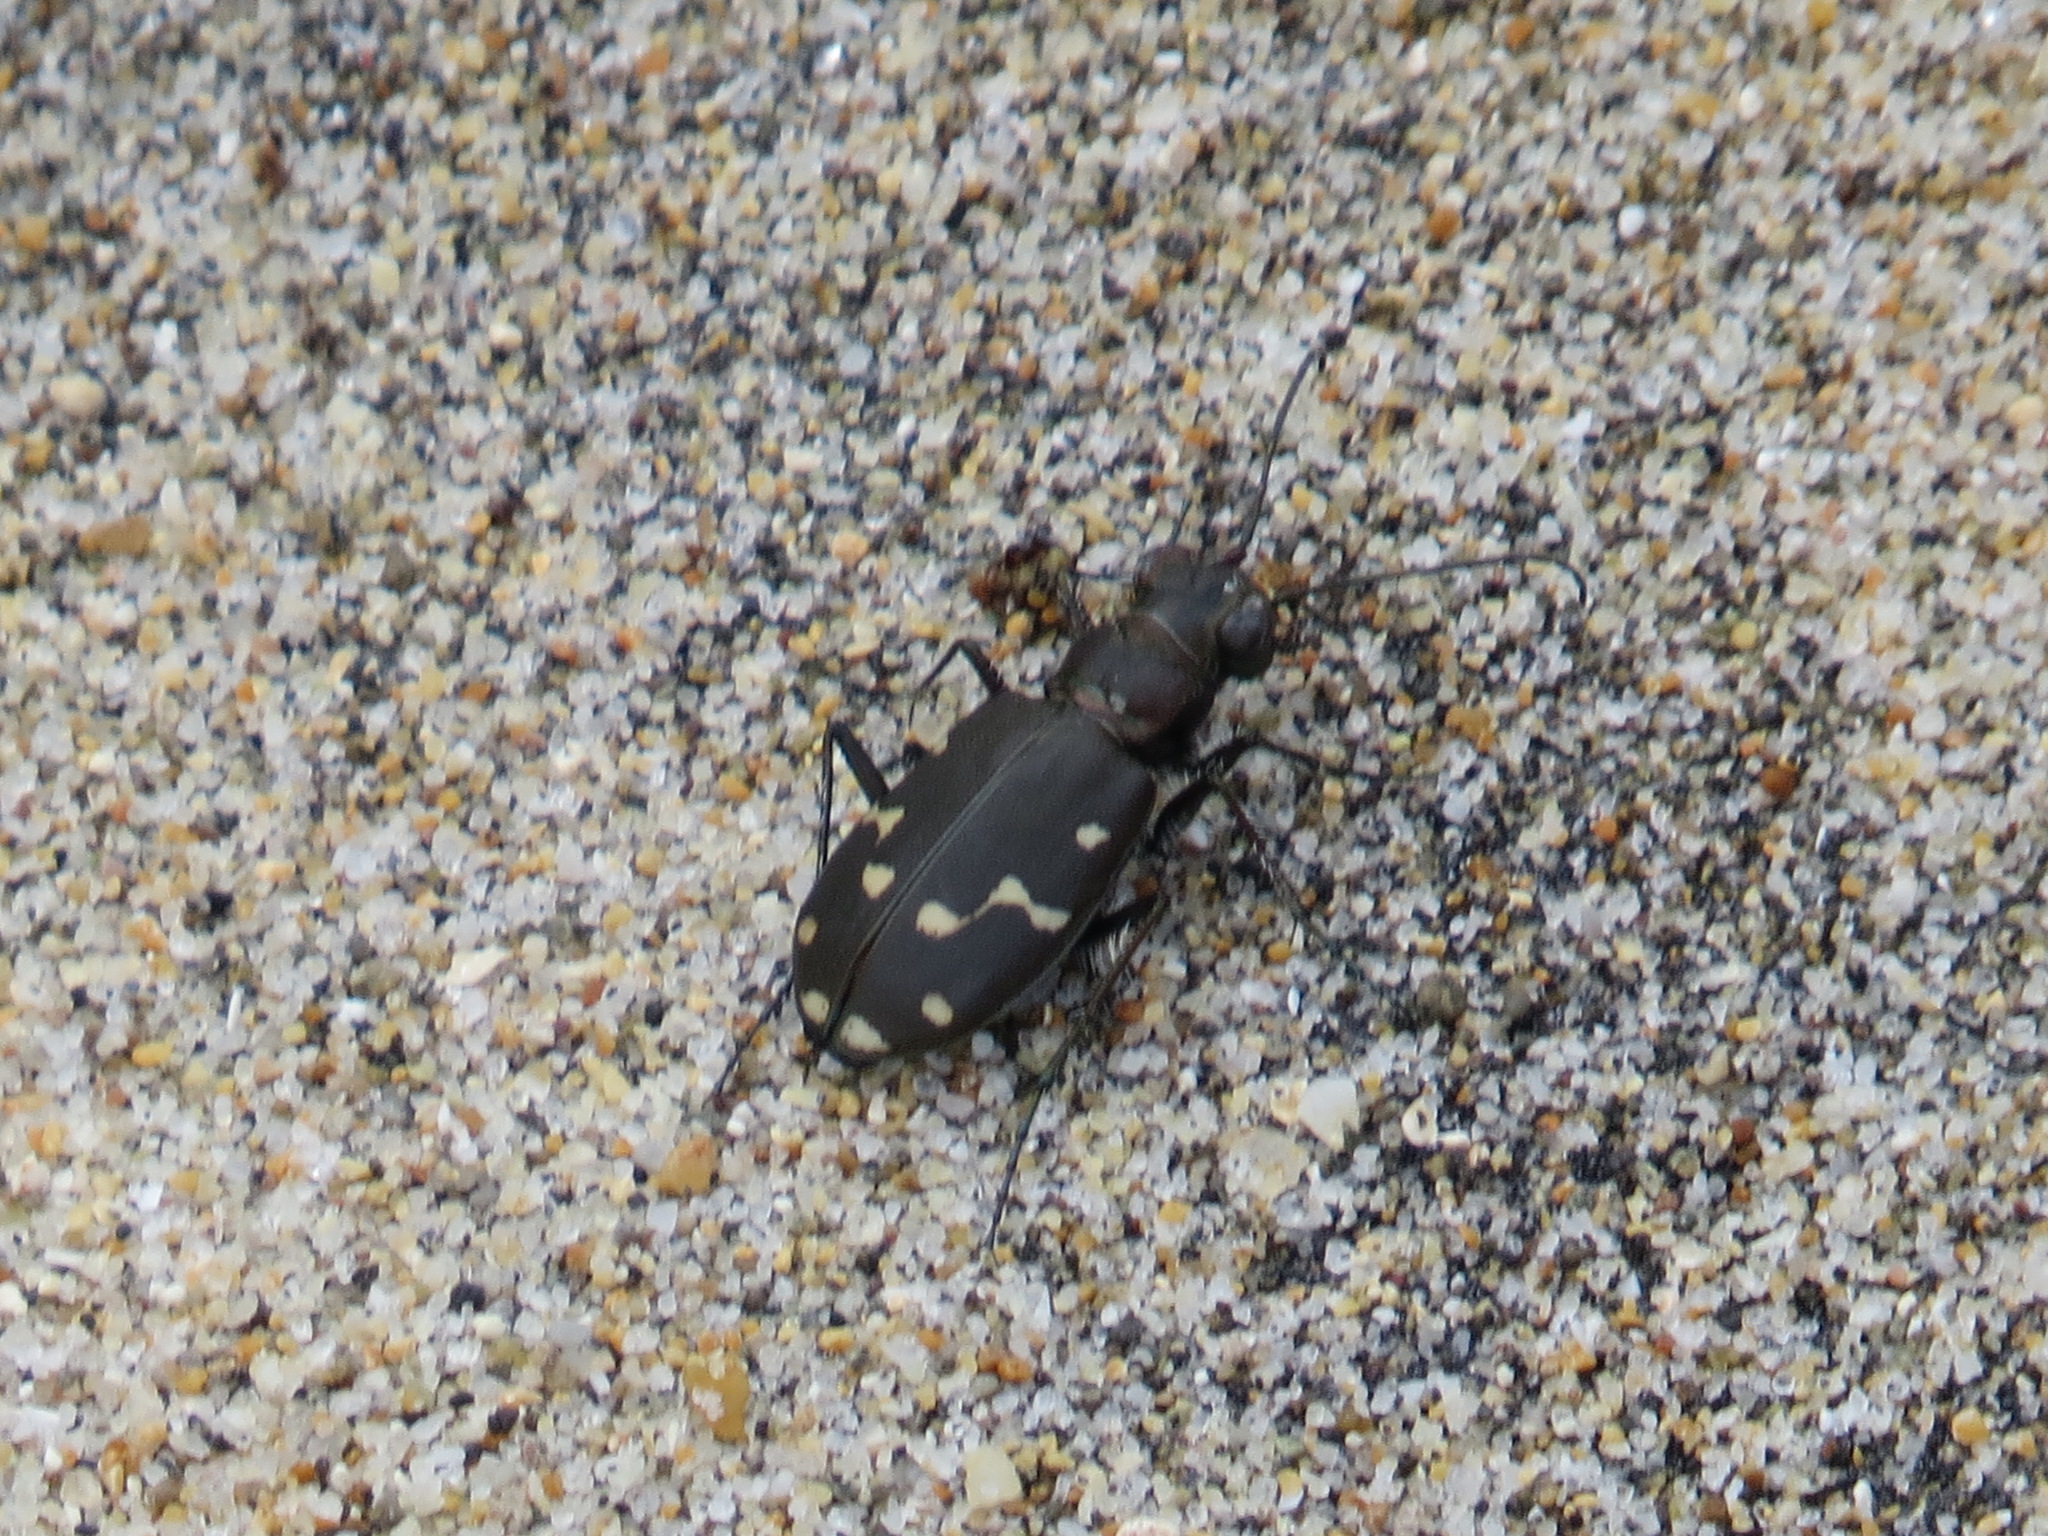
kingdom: Animalia
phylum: Arthropoda
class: Insecta
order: Coleoptera
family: Carabidae
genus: Cicindela
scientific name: Cicindela oregona
